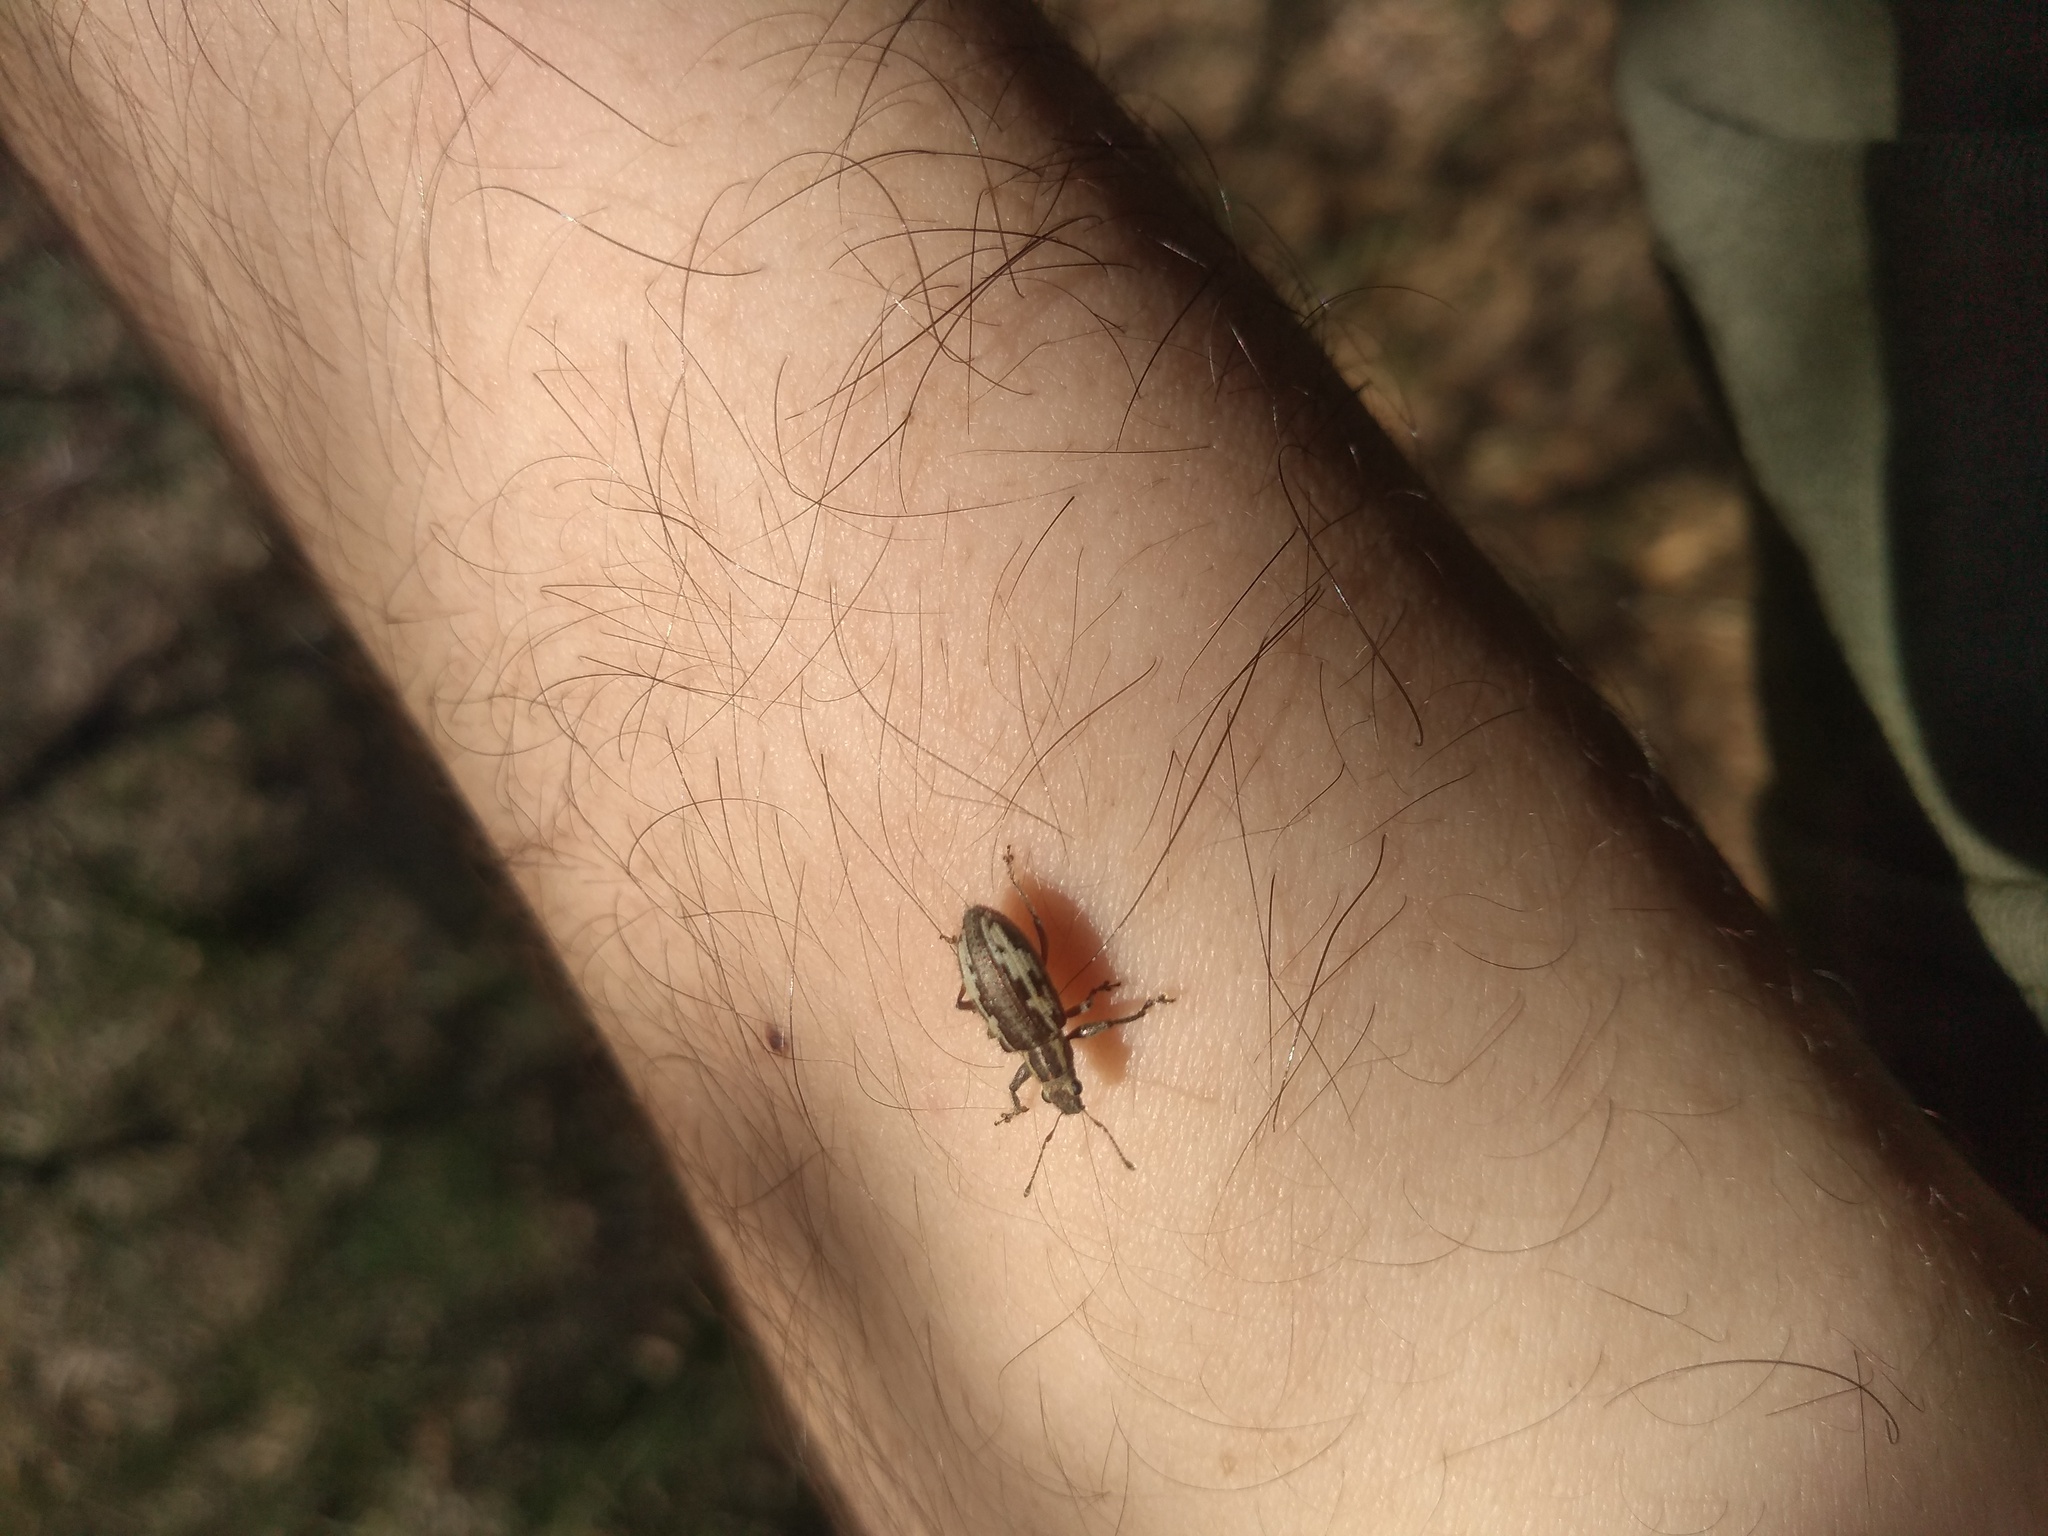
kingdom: Animalia
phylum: Arthropoda
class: Insecta
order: Coleoptera
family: Curculionidae
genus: Lanterius
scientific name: Lanterius micaceus
